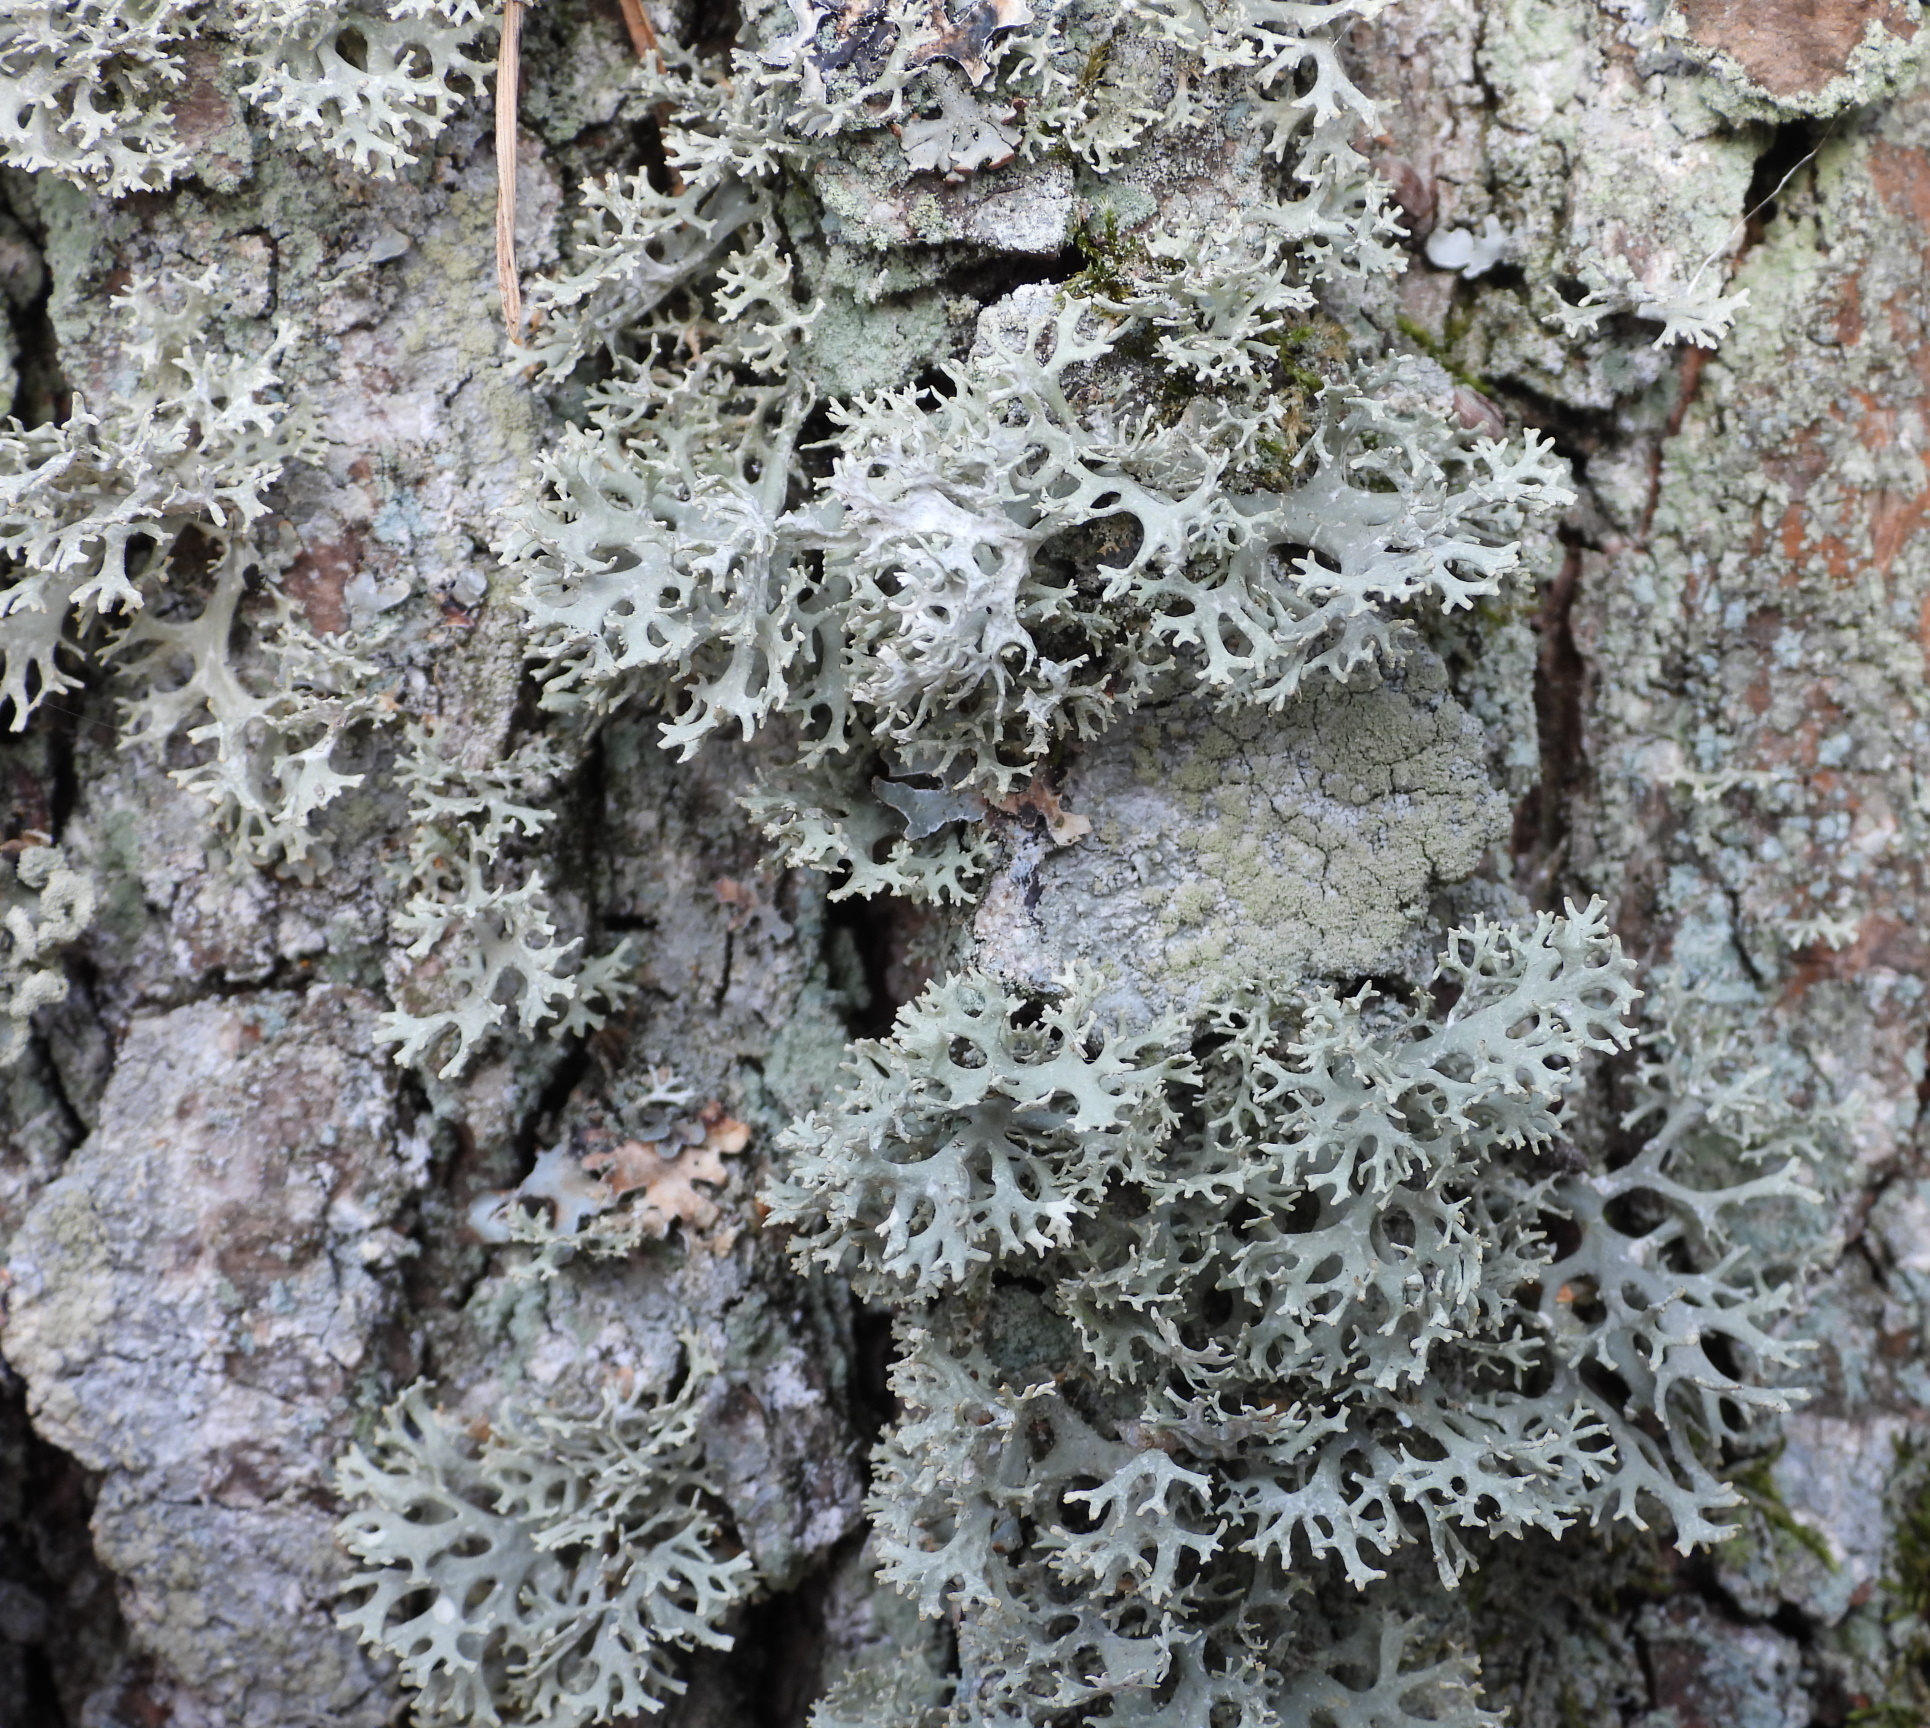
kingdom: Fungi
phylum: Ascomycota
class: Lecanoromycetes
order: Lecanorales
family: Parmeliaceae
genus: Evernia
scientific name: Evernia prunastri
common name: Oak moss
